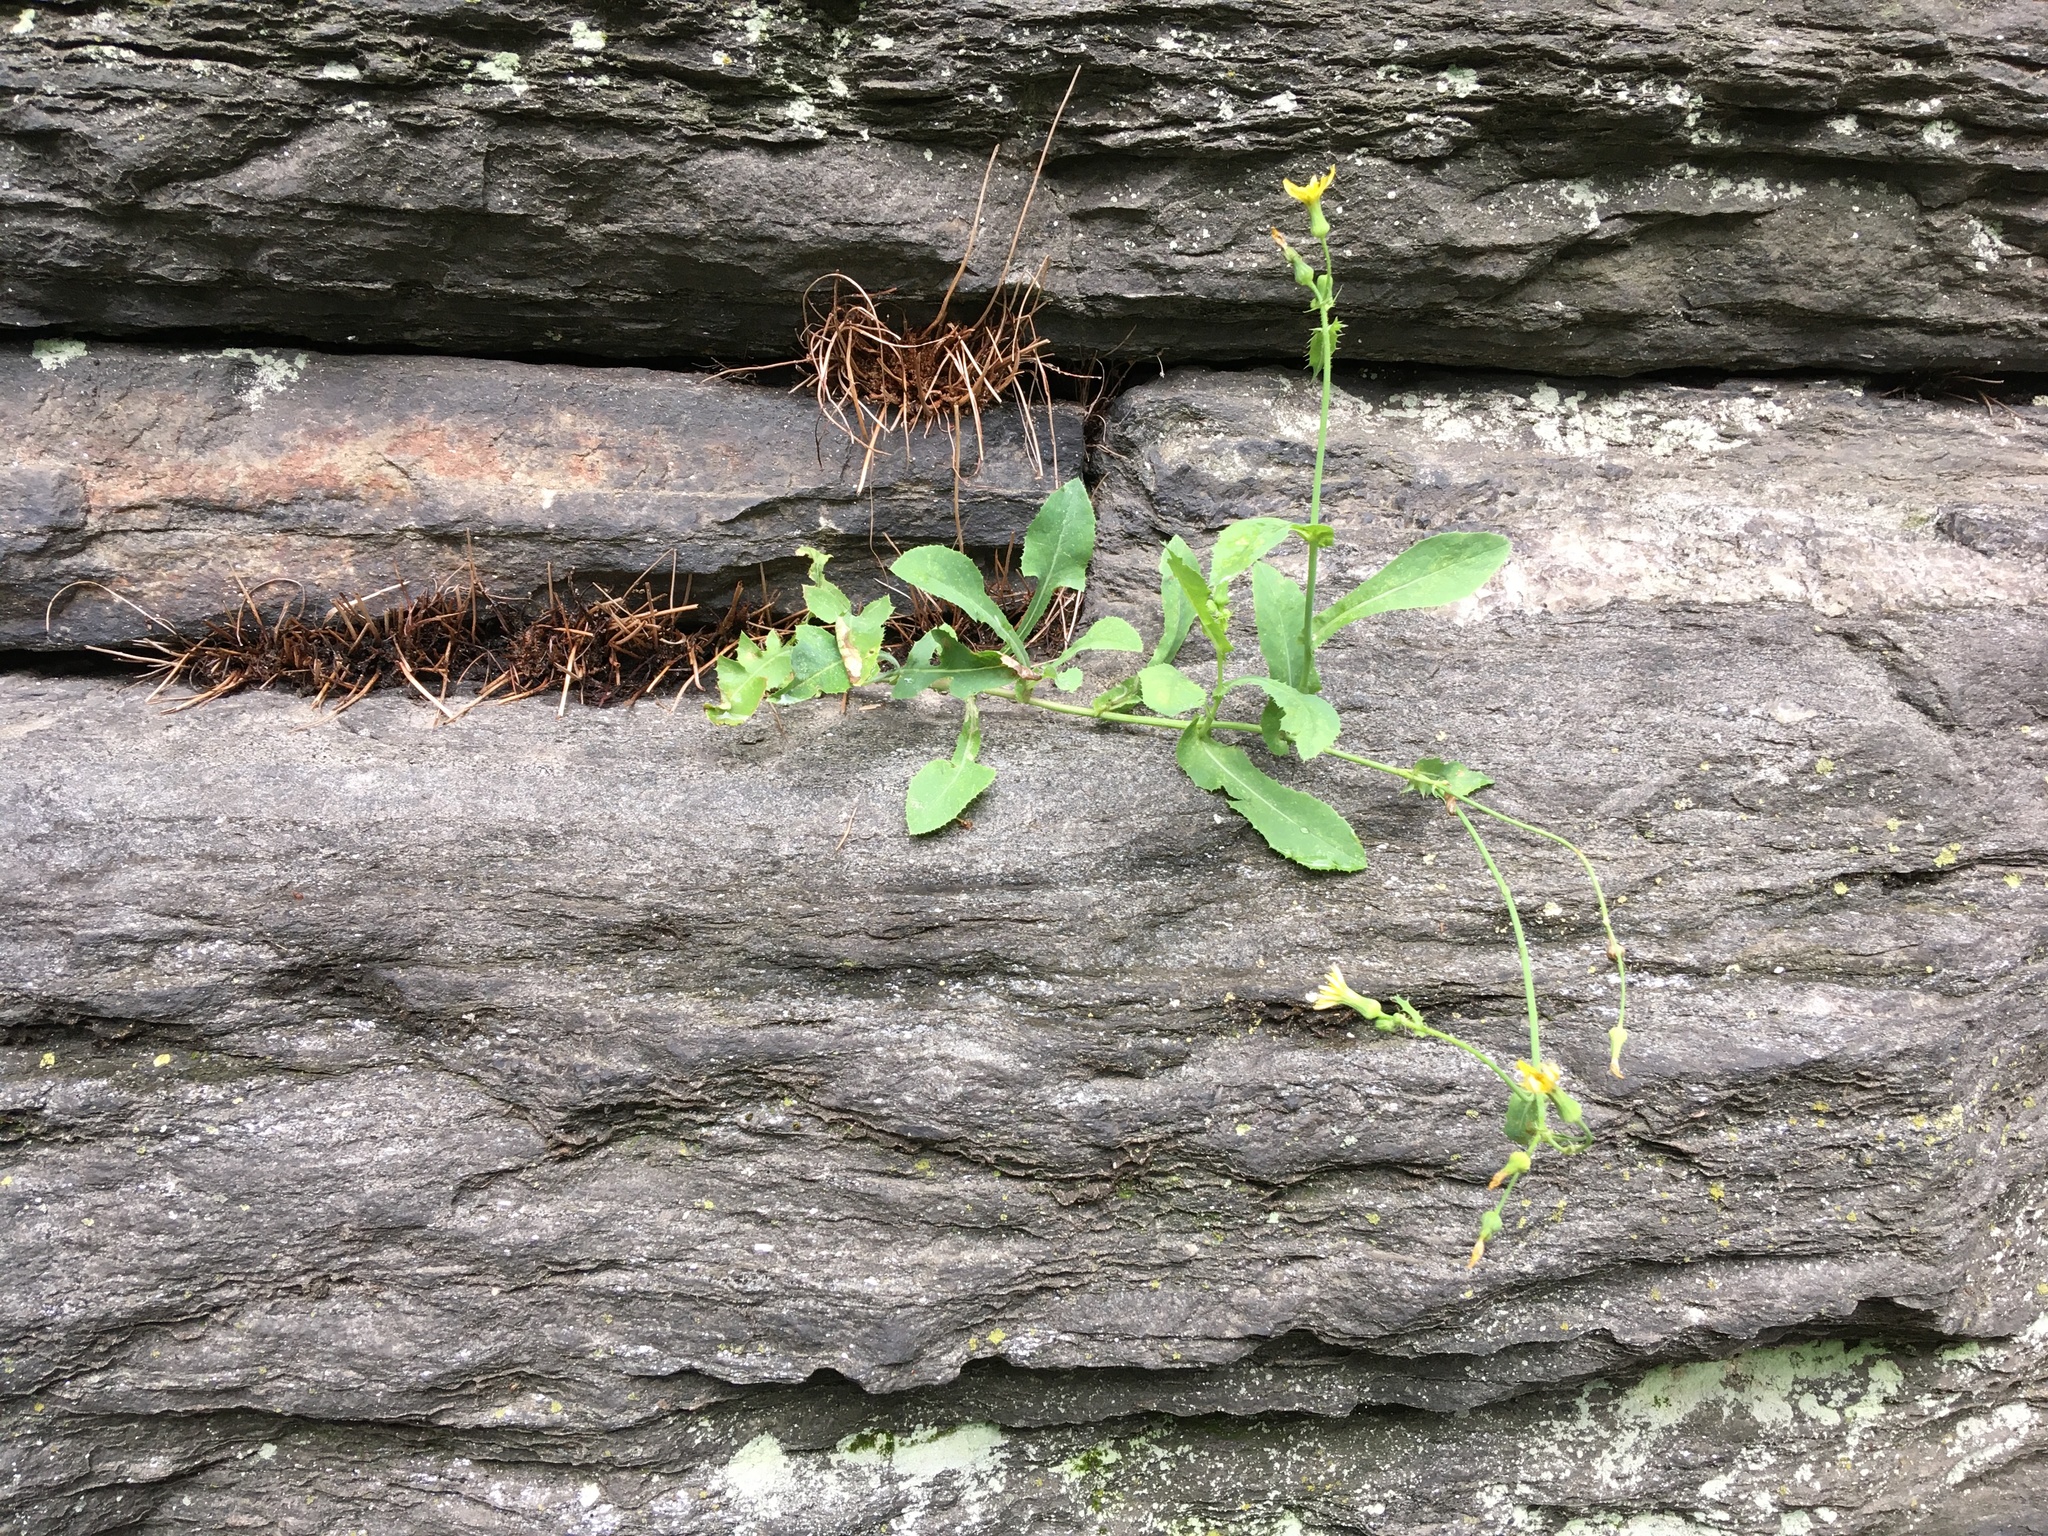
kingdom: Plantae
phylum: Tracheophyta
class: Magnoliopsida
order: Asterales
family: Asteraceae
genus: Sonchus
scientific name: Sonchus oleraceus
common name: Common sowthistle
